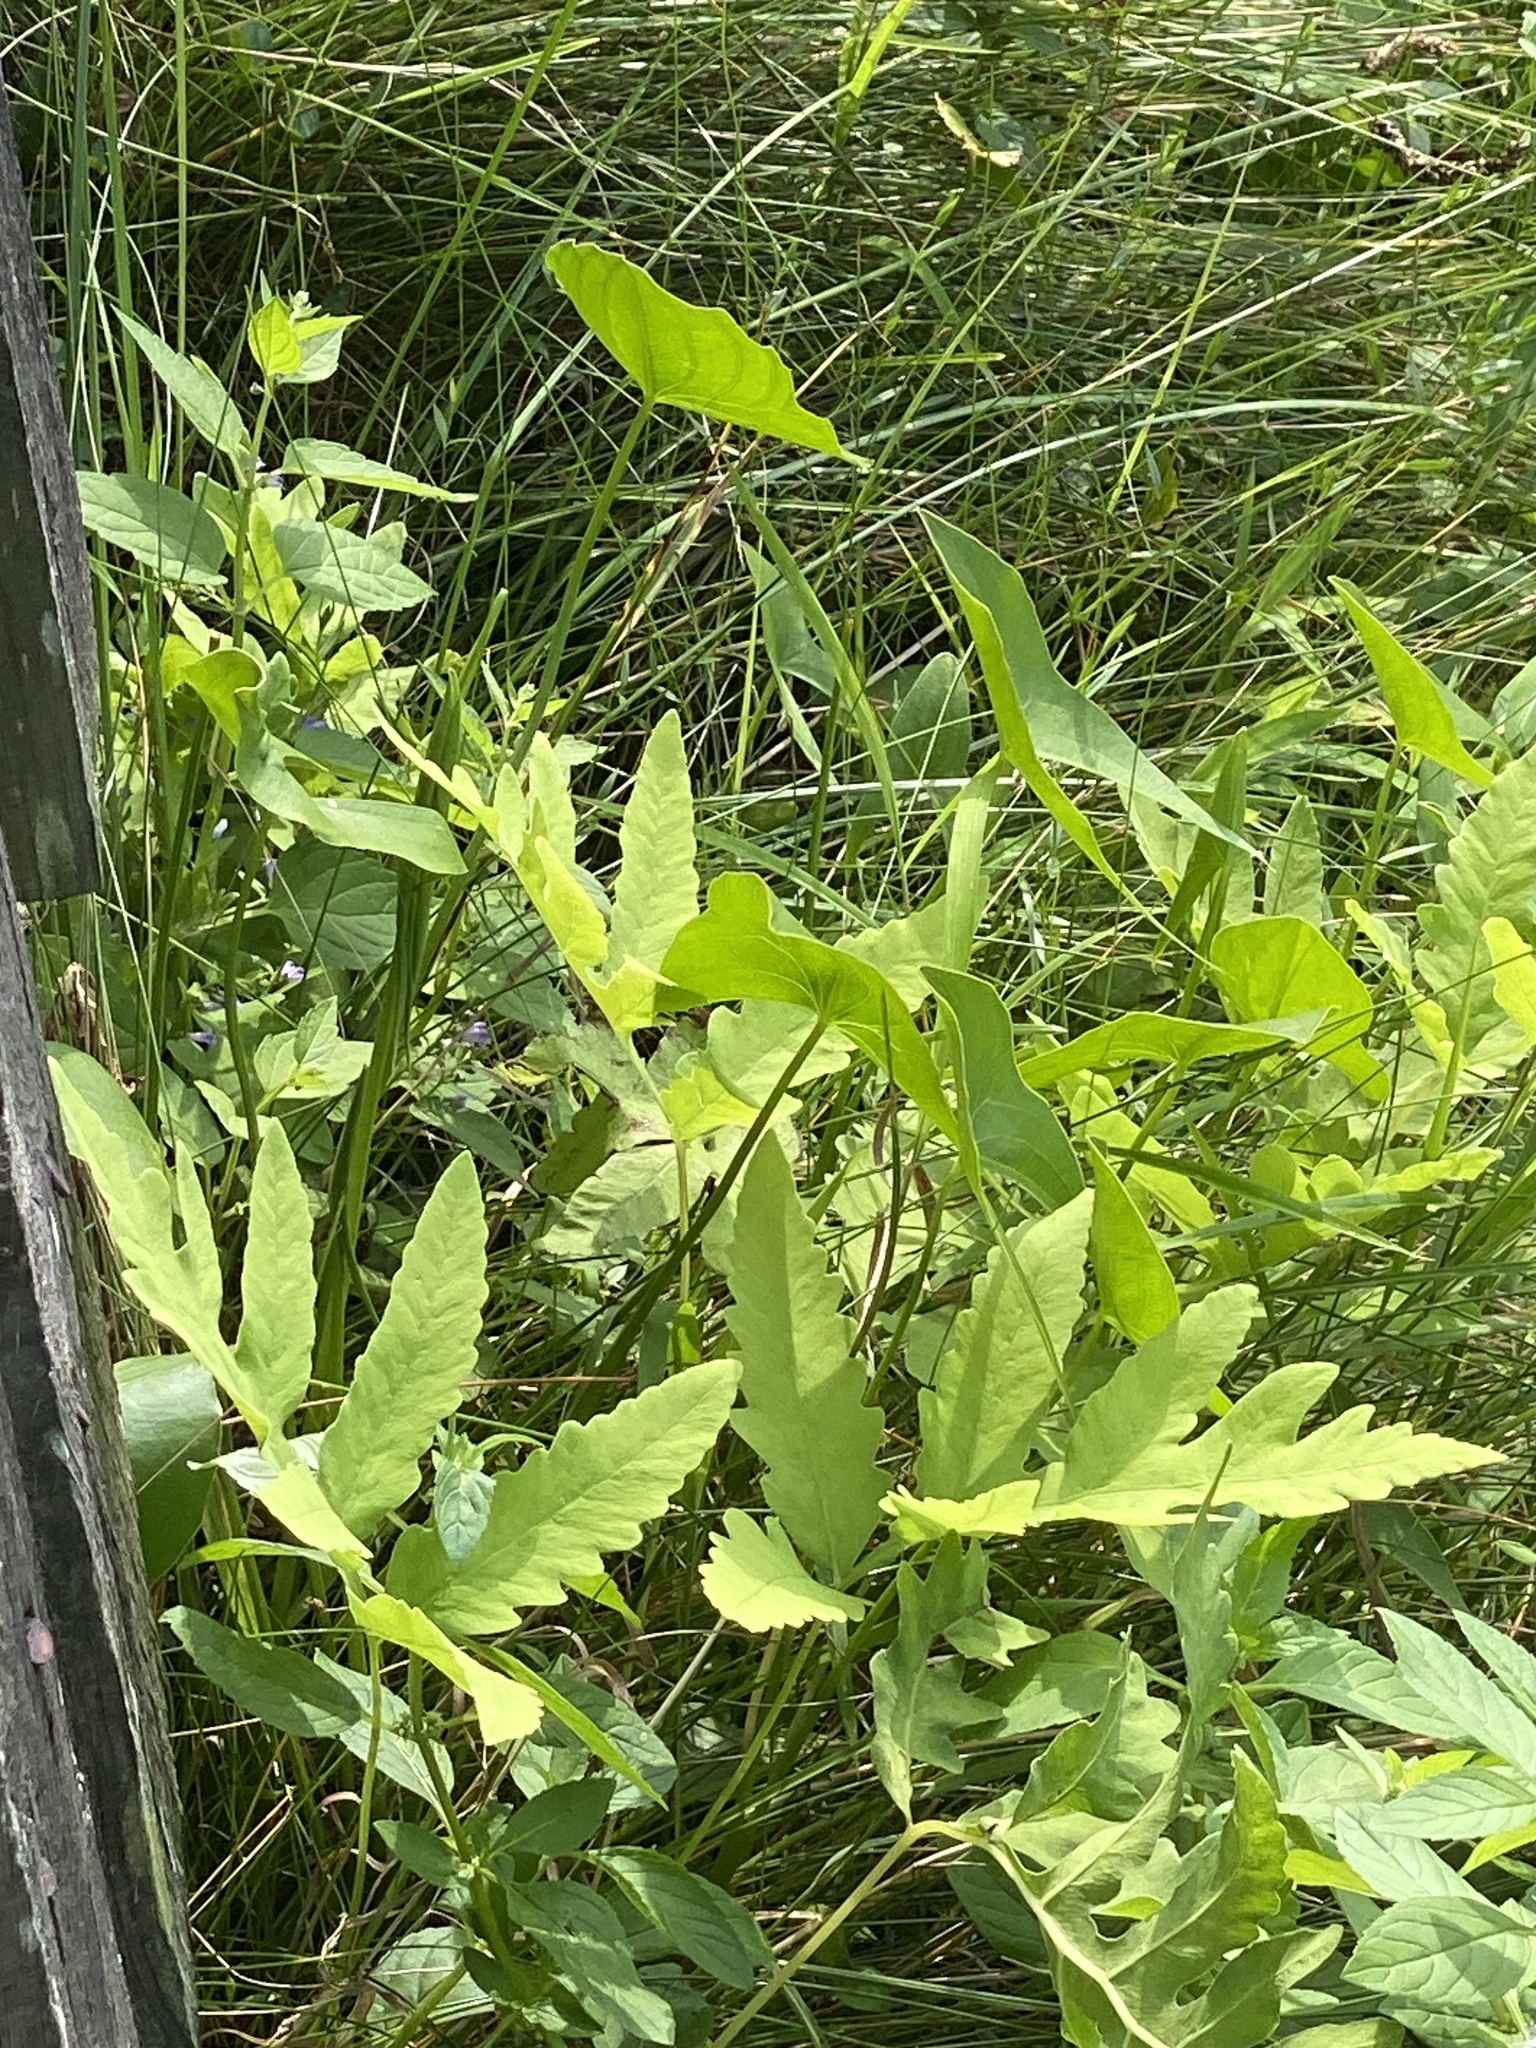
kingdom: Plantae
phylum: Tracheophyta
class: Polypodiopsida
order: Polypodiales
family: Onocleaceae
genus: Onoclea
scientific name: Onoclea sensibilis
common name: Sensitive fern
